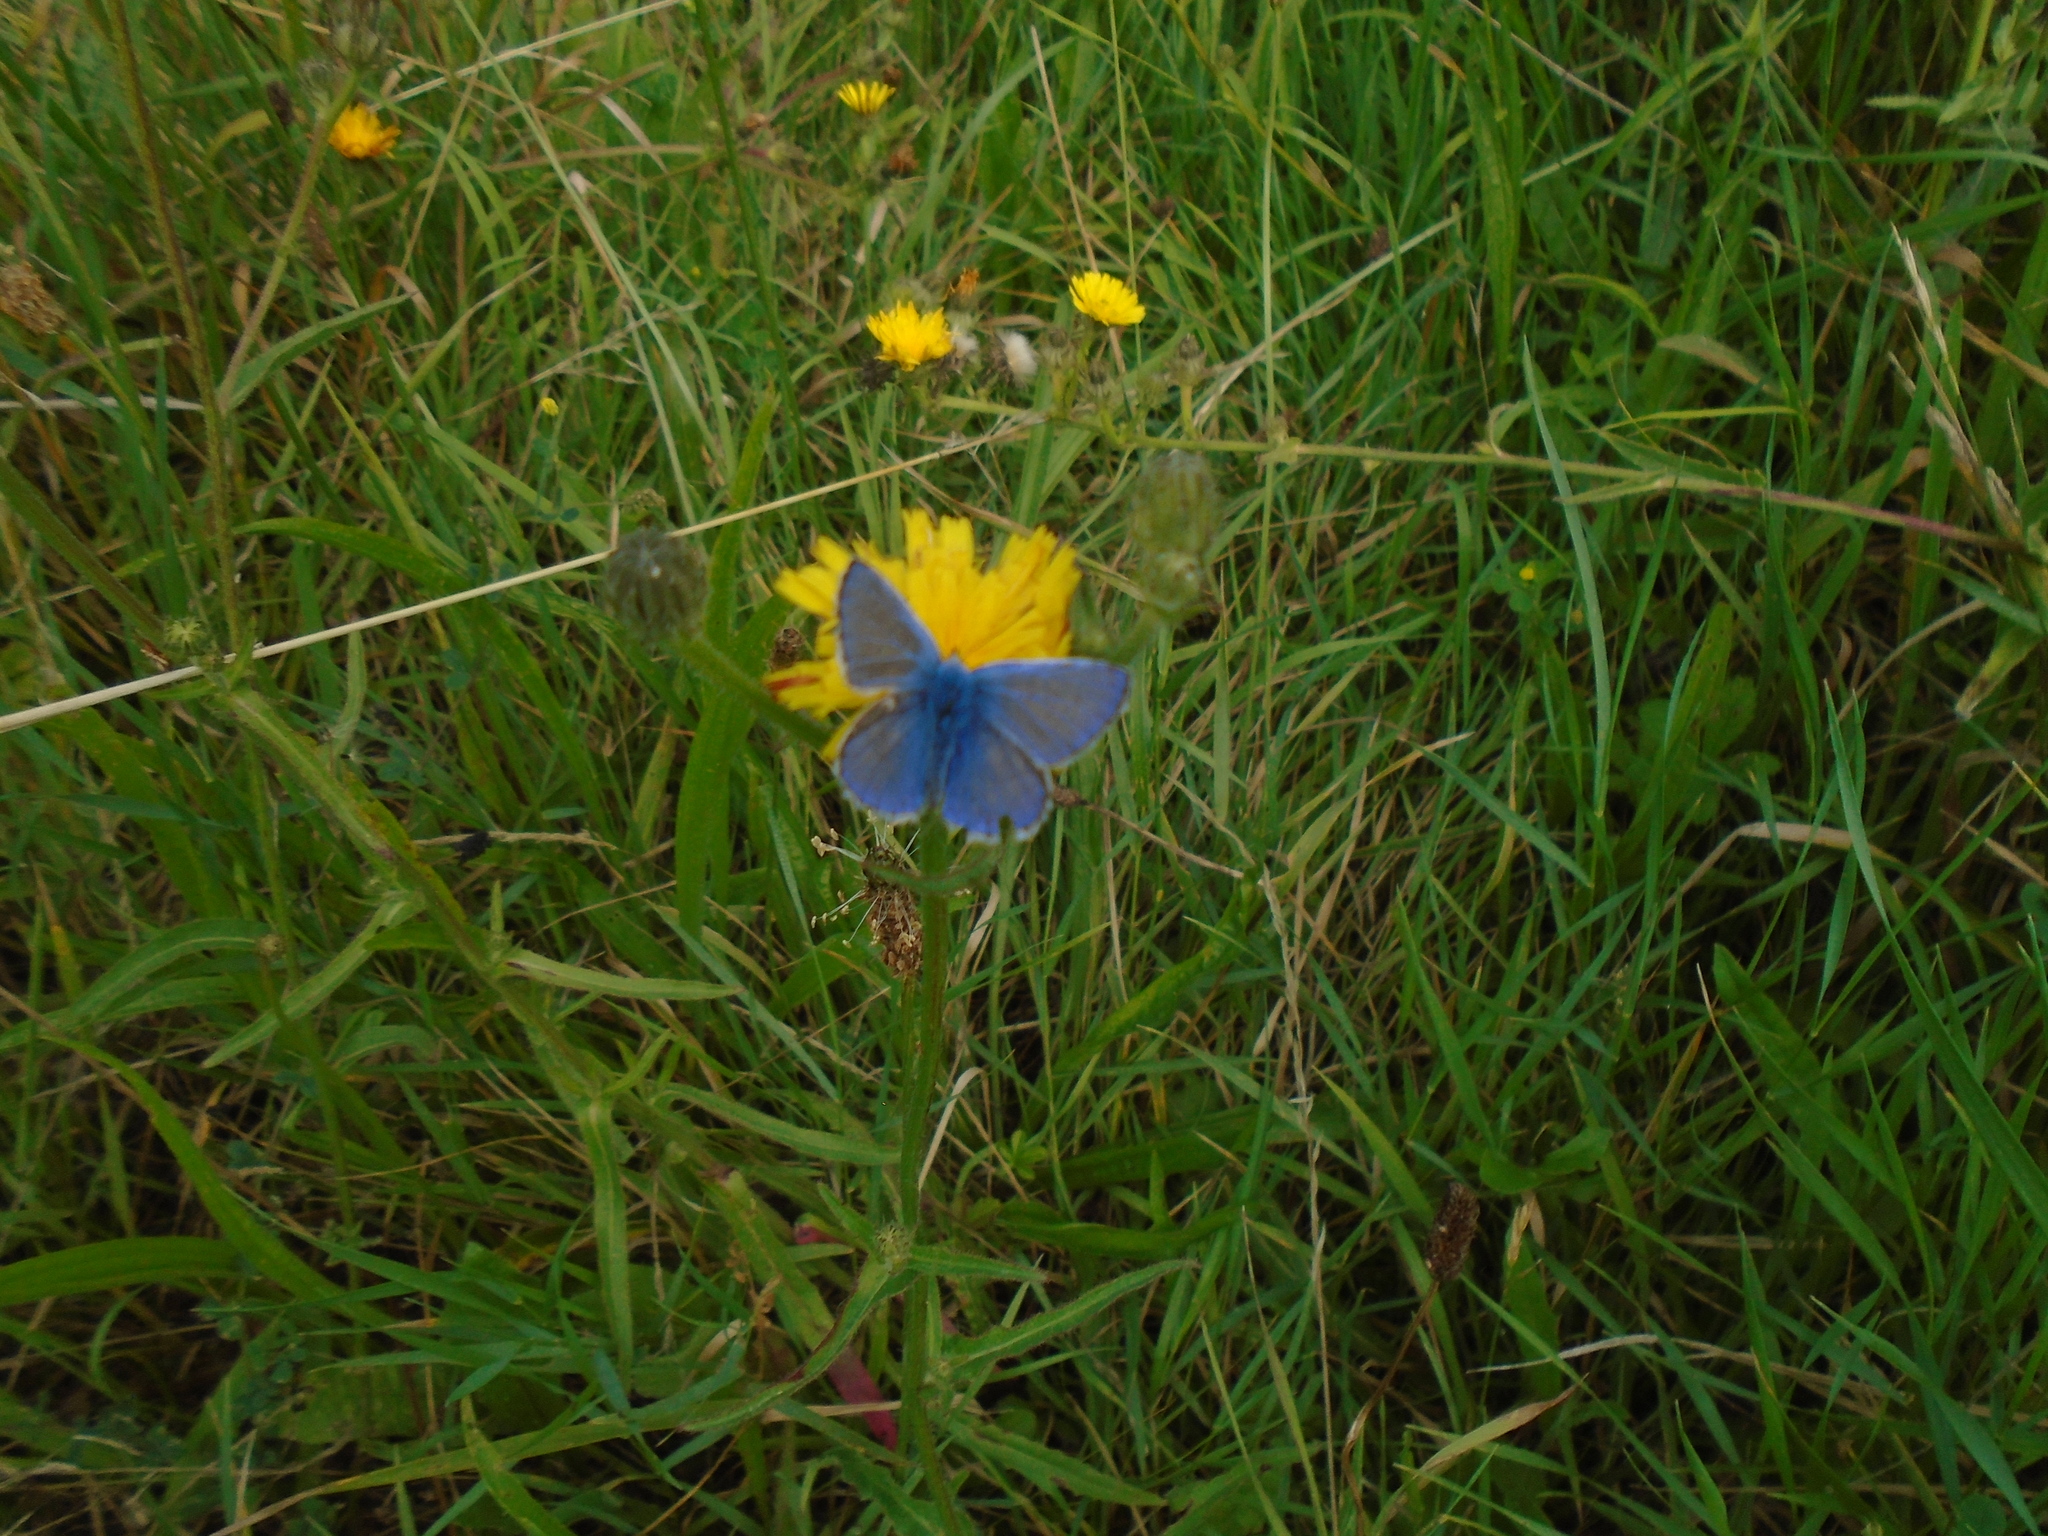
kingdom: Animalia
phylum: Arthropoda
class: Insecta
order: Lepidoptera
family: Lycaenidae
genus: Polyommatus
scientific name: Polyommatus icarus
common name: Common blue
